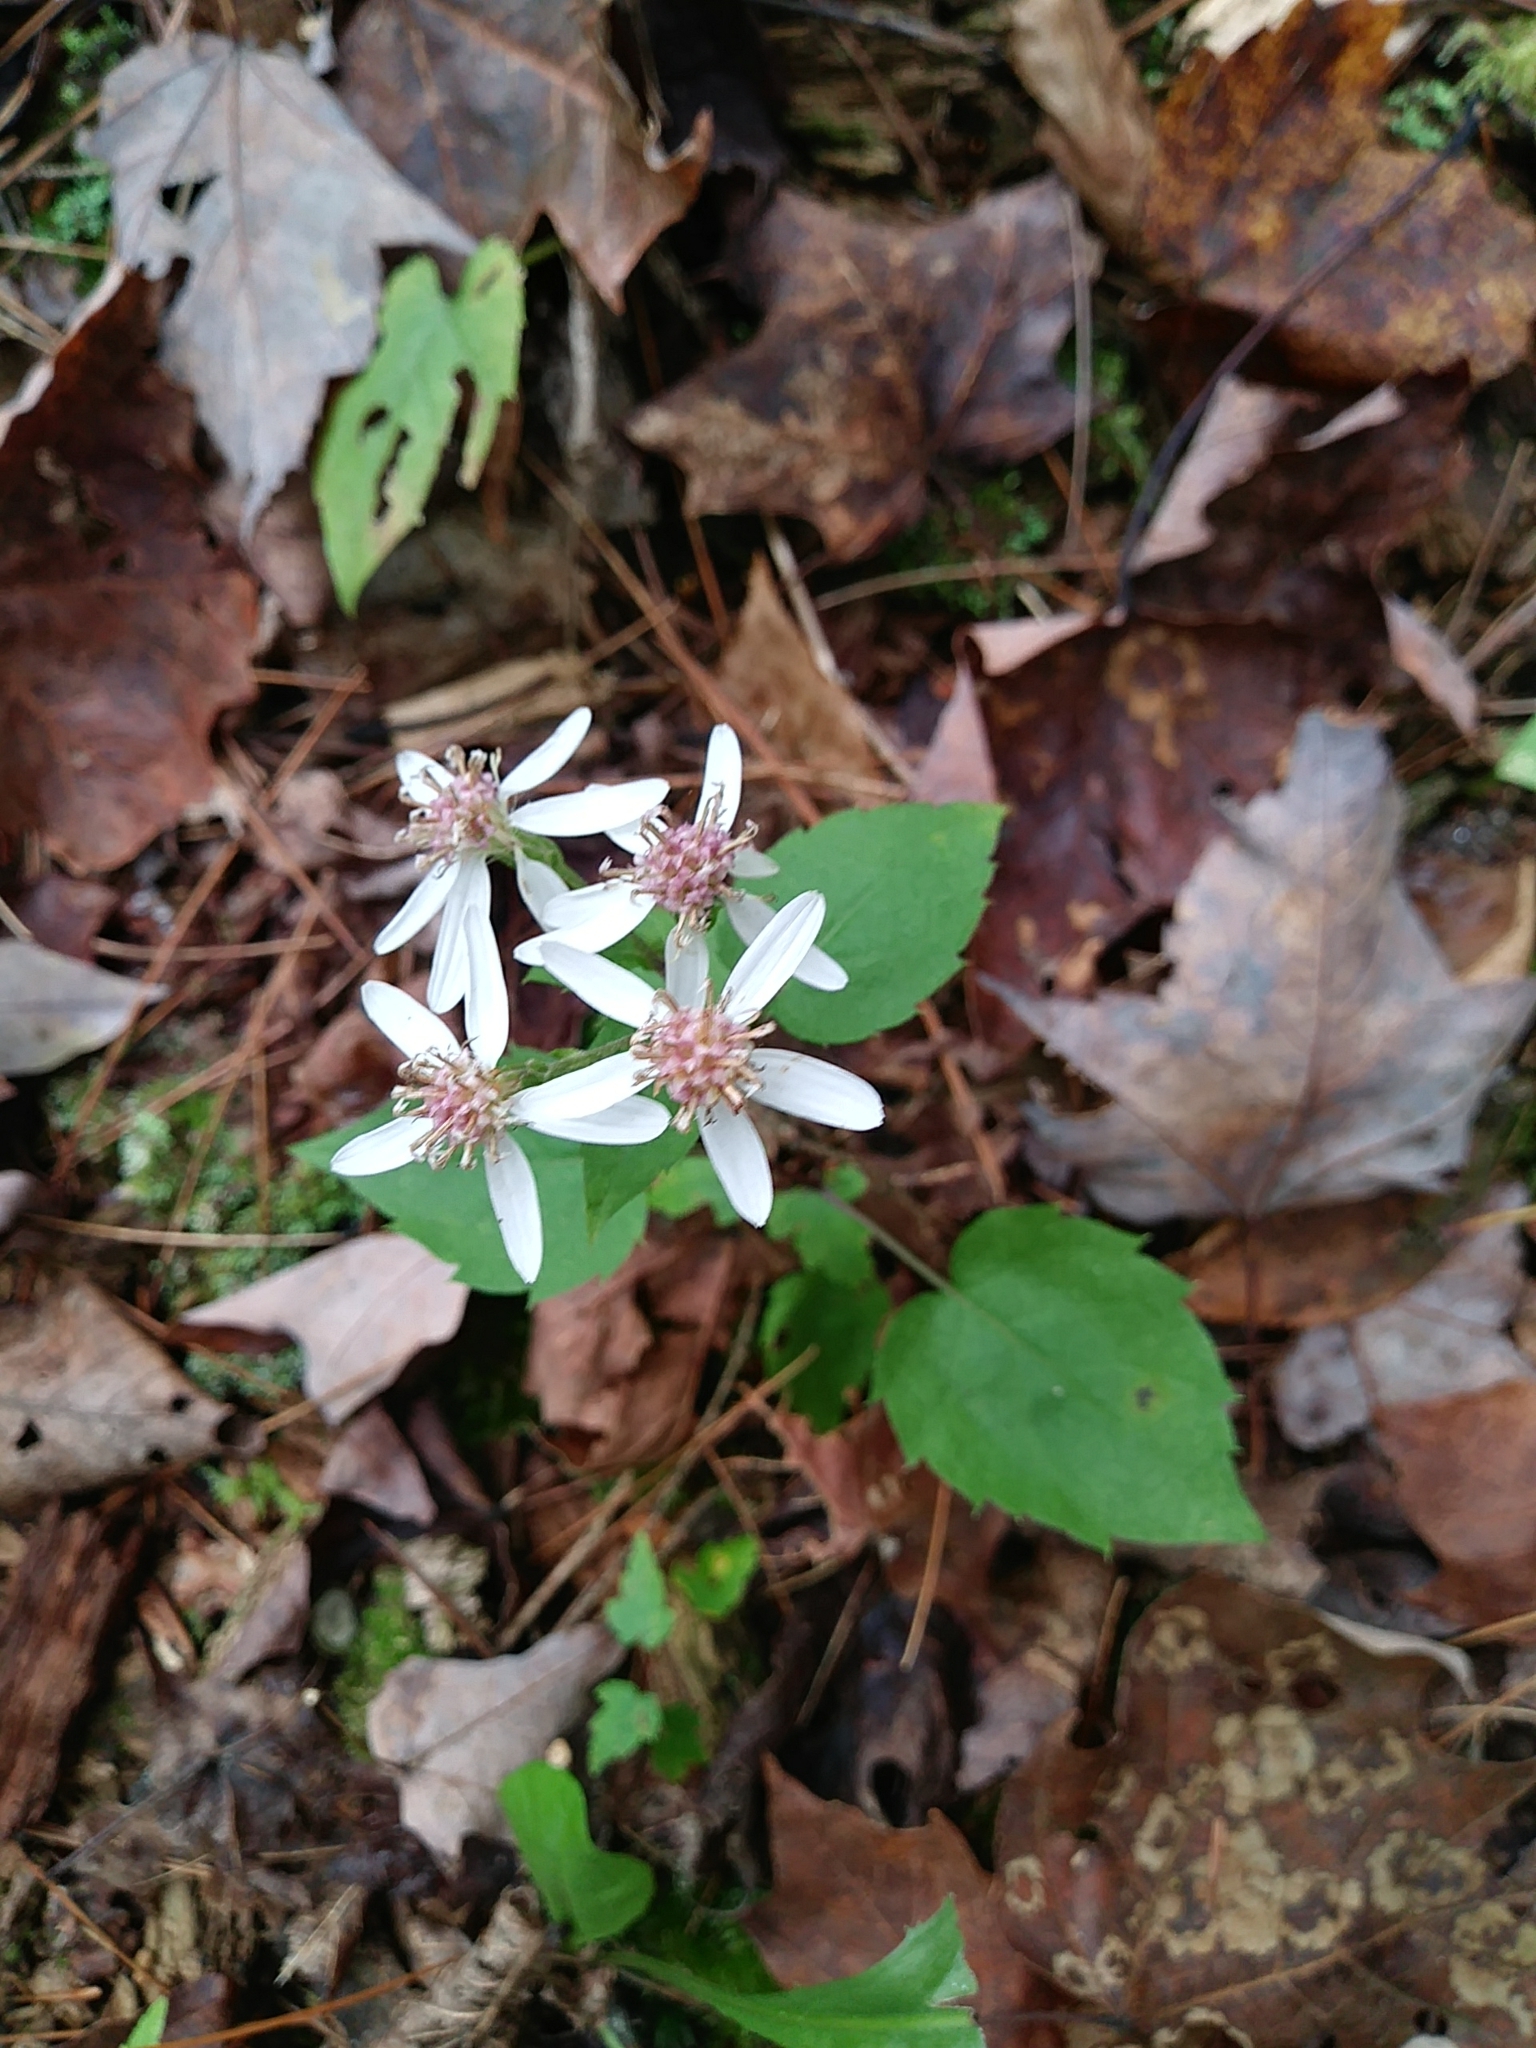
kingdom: Plantae
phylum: Tracheophyta
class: Magnoliopsida
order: Asterales
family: Asteraceae
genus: Eurybia
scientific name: Eurybia divaricata
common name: White wood aster
